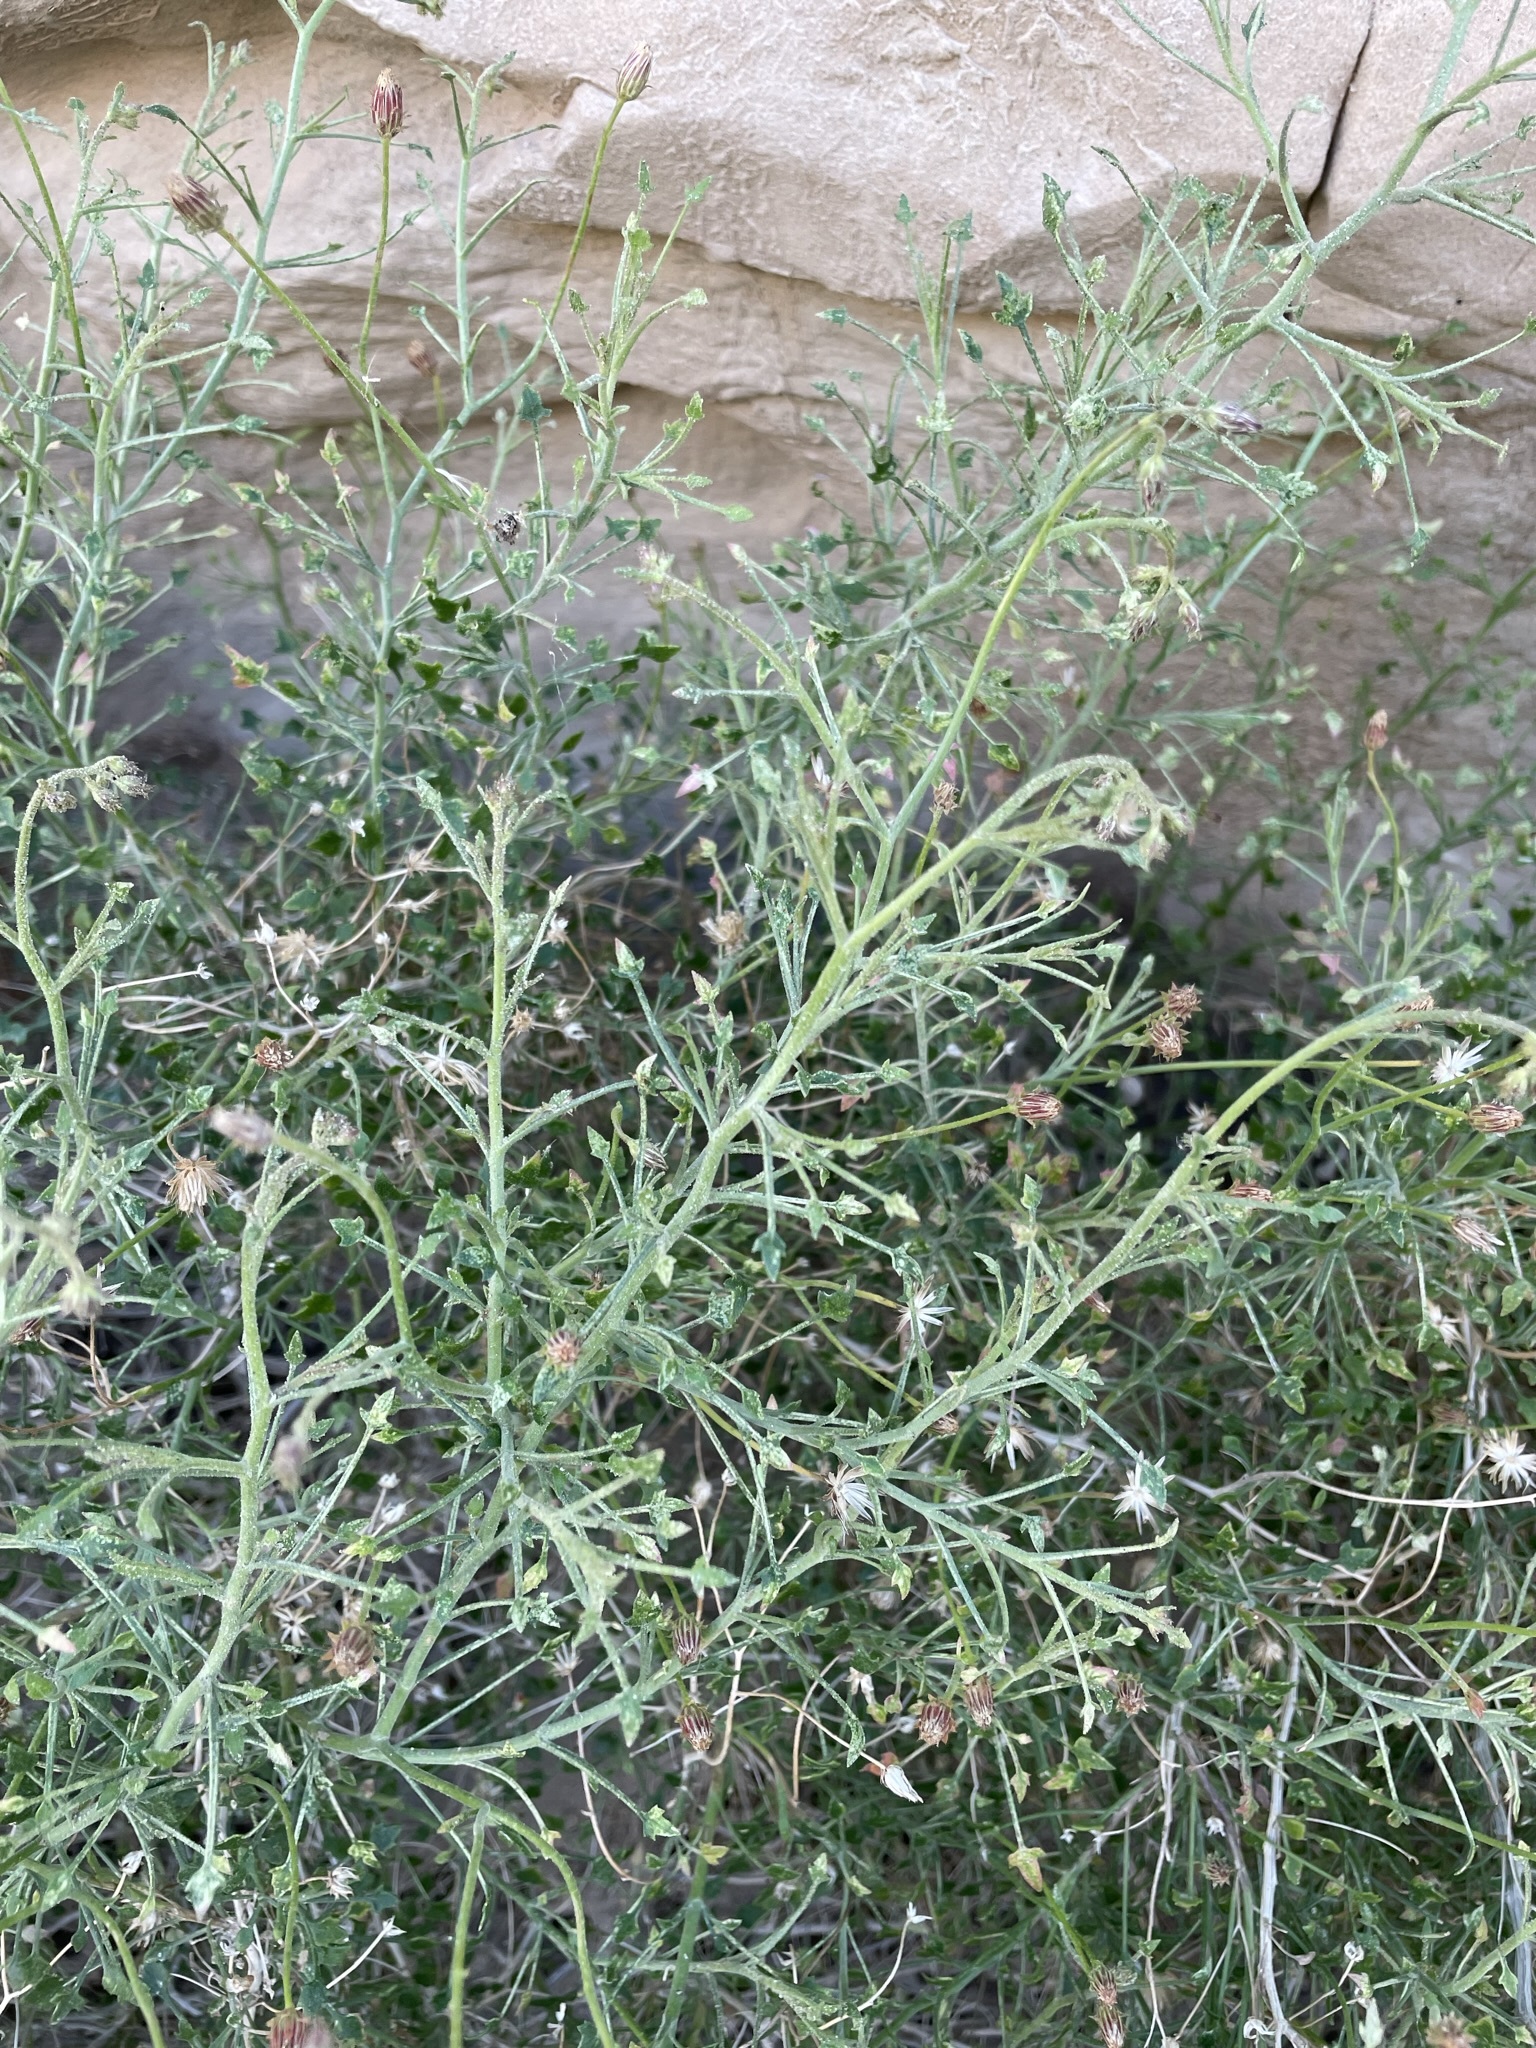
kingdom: Plantae
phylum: Tracheophyta
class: Magnoliopsida
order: Asterales
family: Asteraceae
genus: Pleurocoronis
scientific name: Pleurocoronis pluriseta
